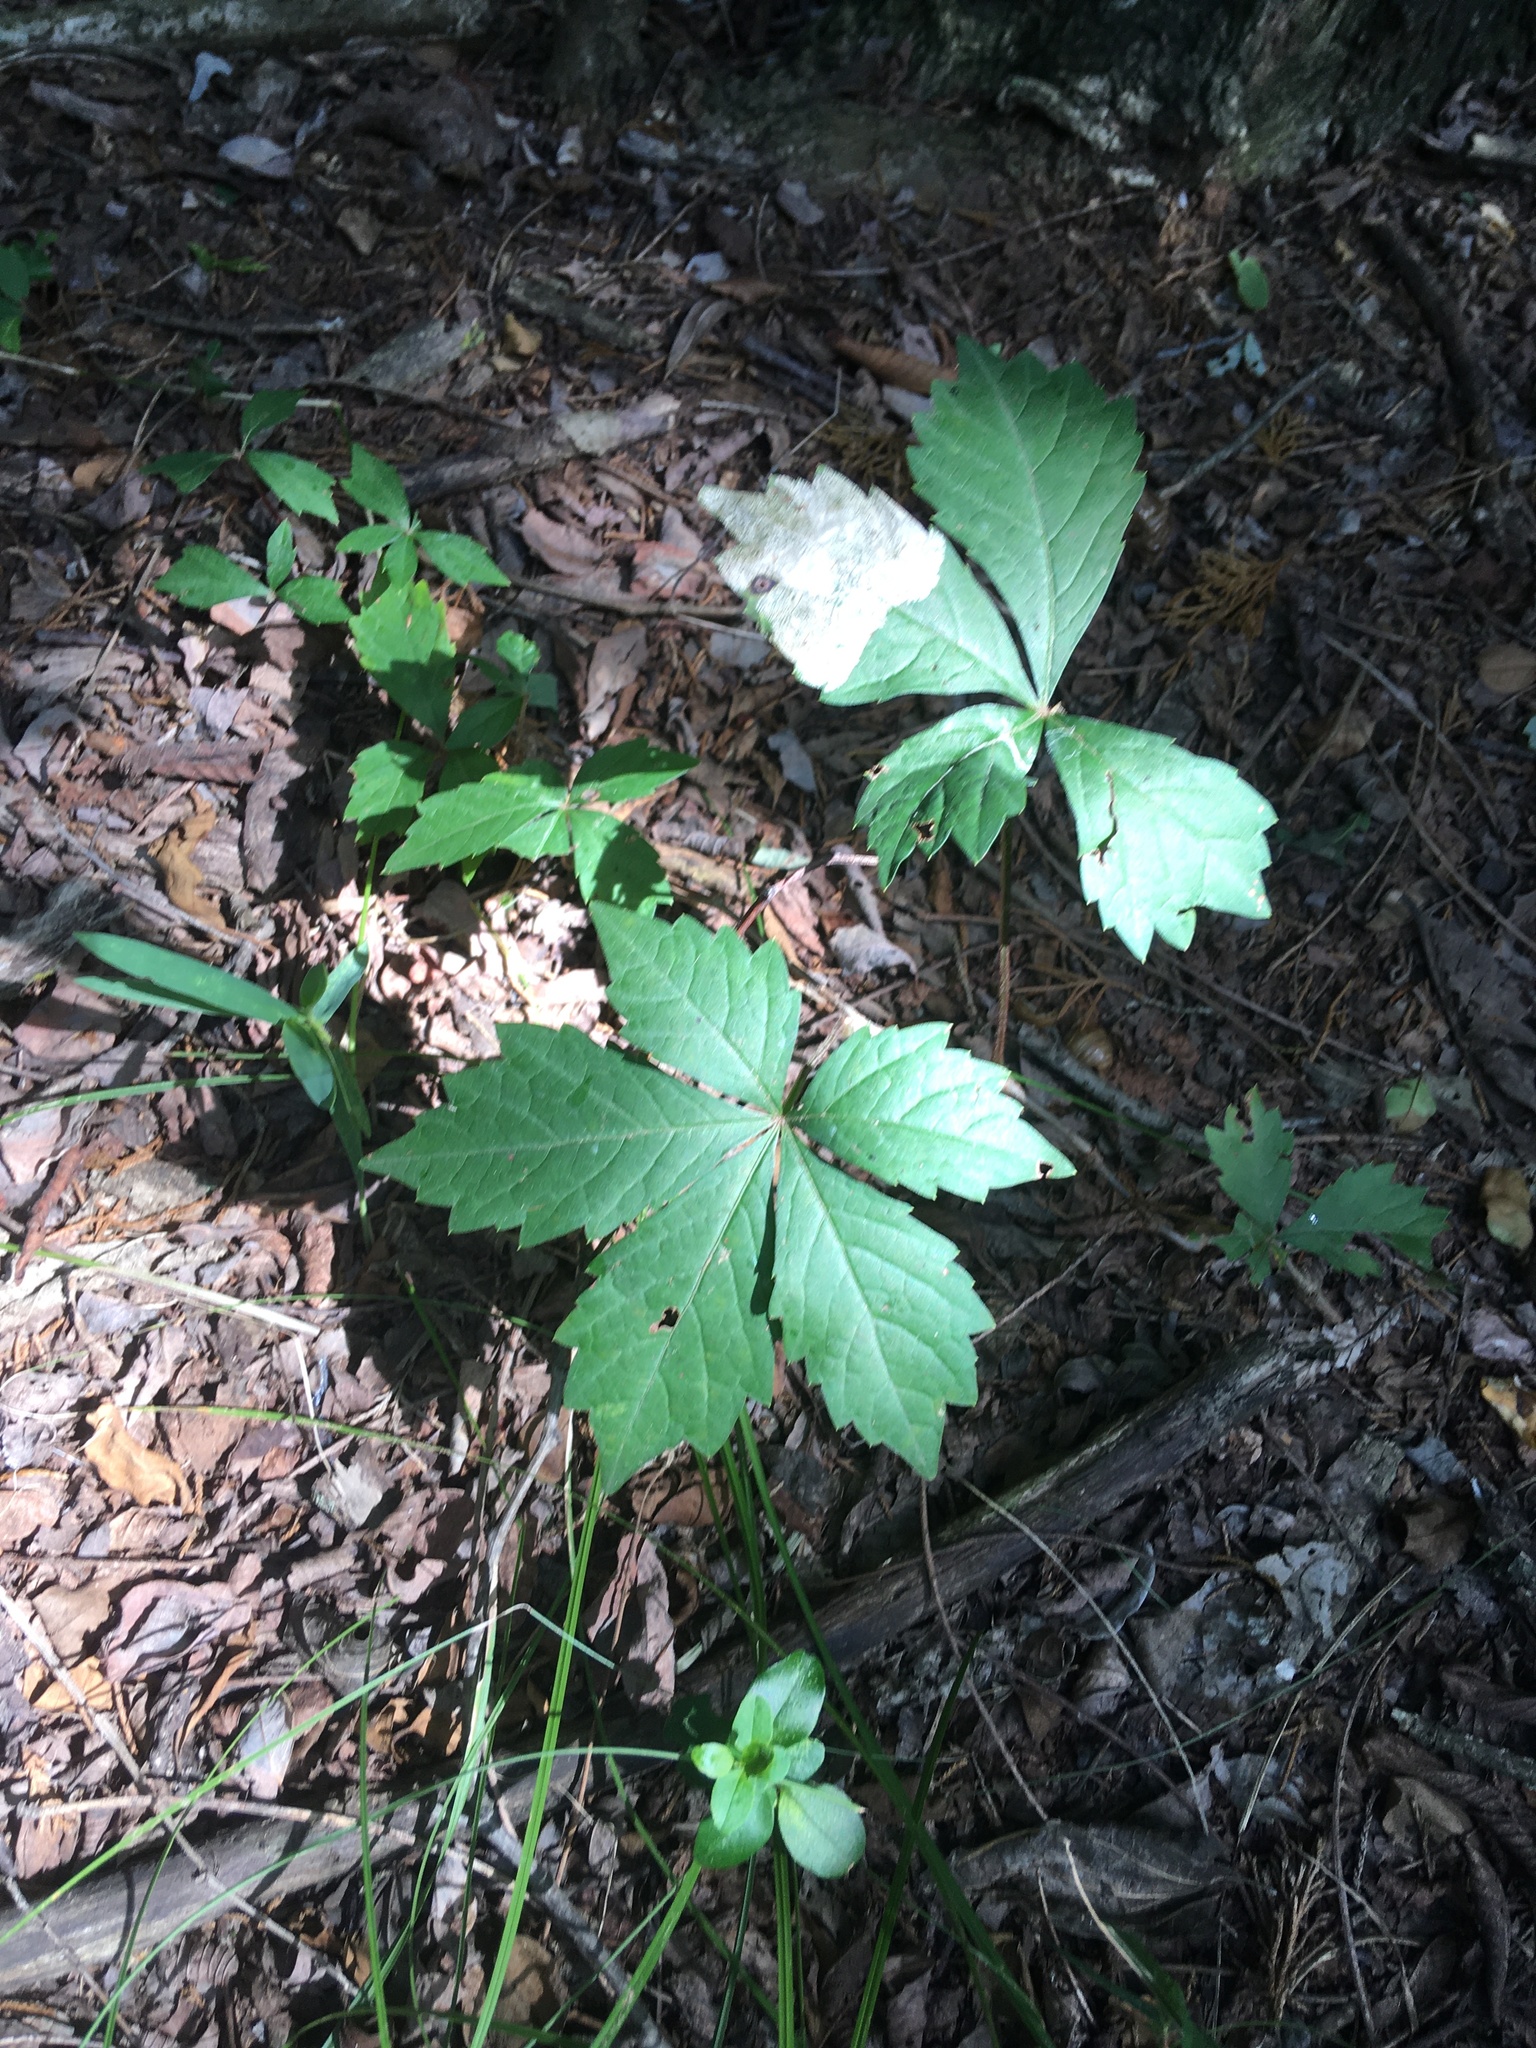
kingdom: Plantae
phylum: Tracheophyta
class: Magnoliopsida
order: Vitales
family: Vitaceae
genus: Parthenocissus
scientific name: Parthenocissus quinquefolia
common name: Virginia-creeper
